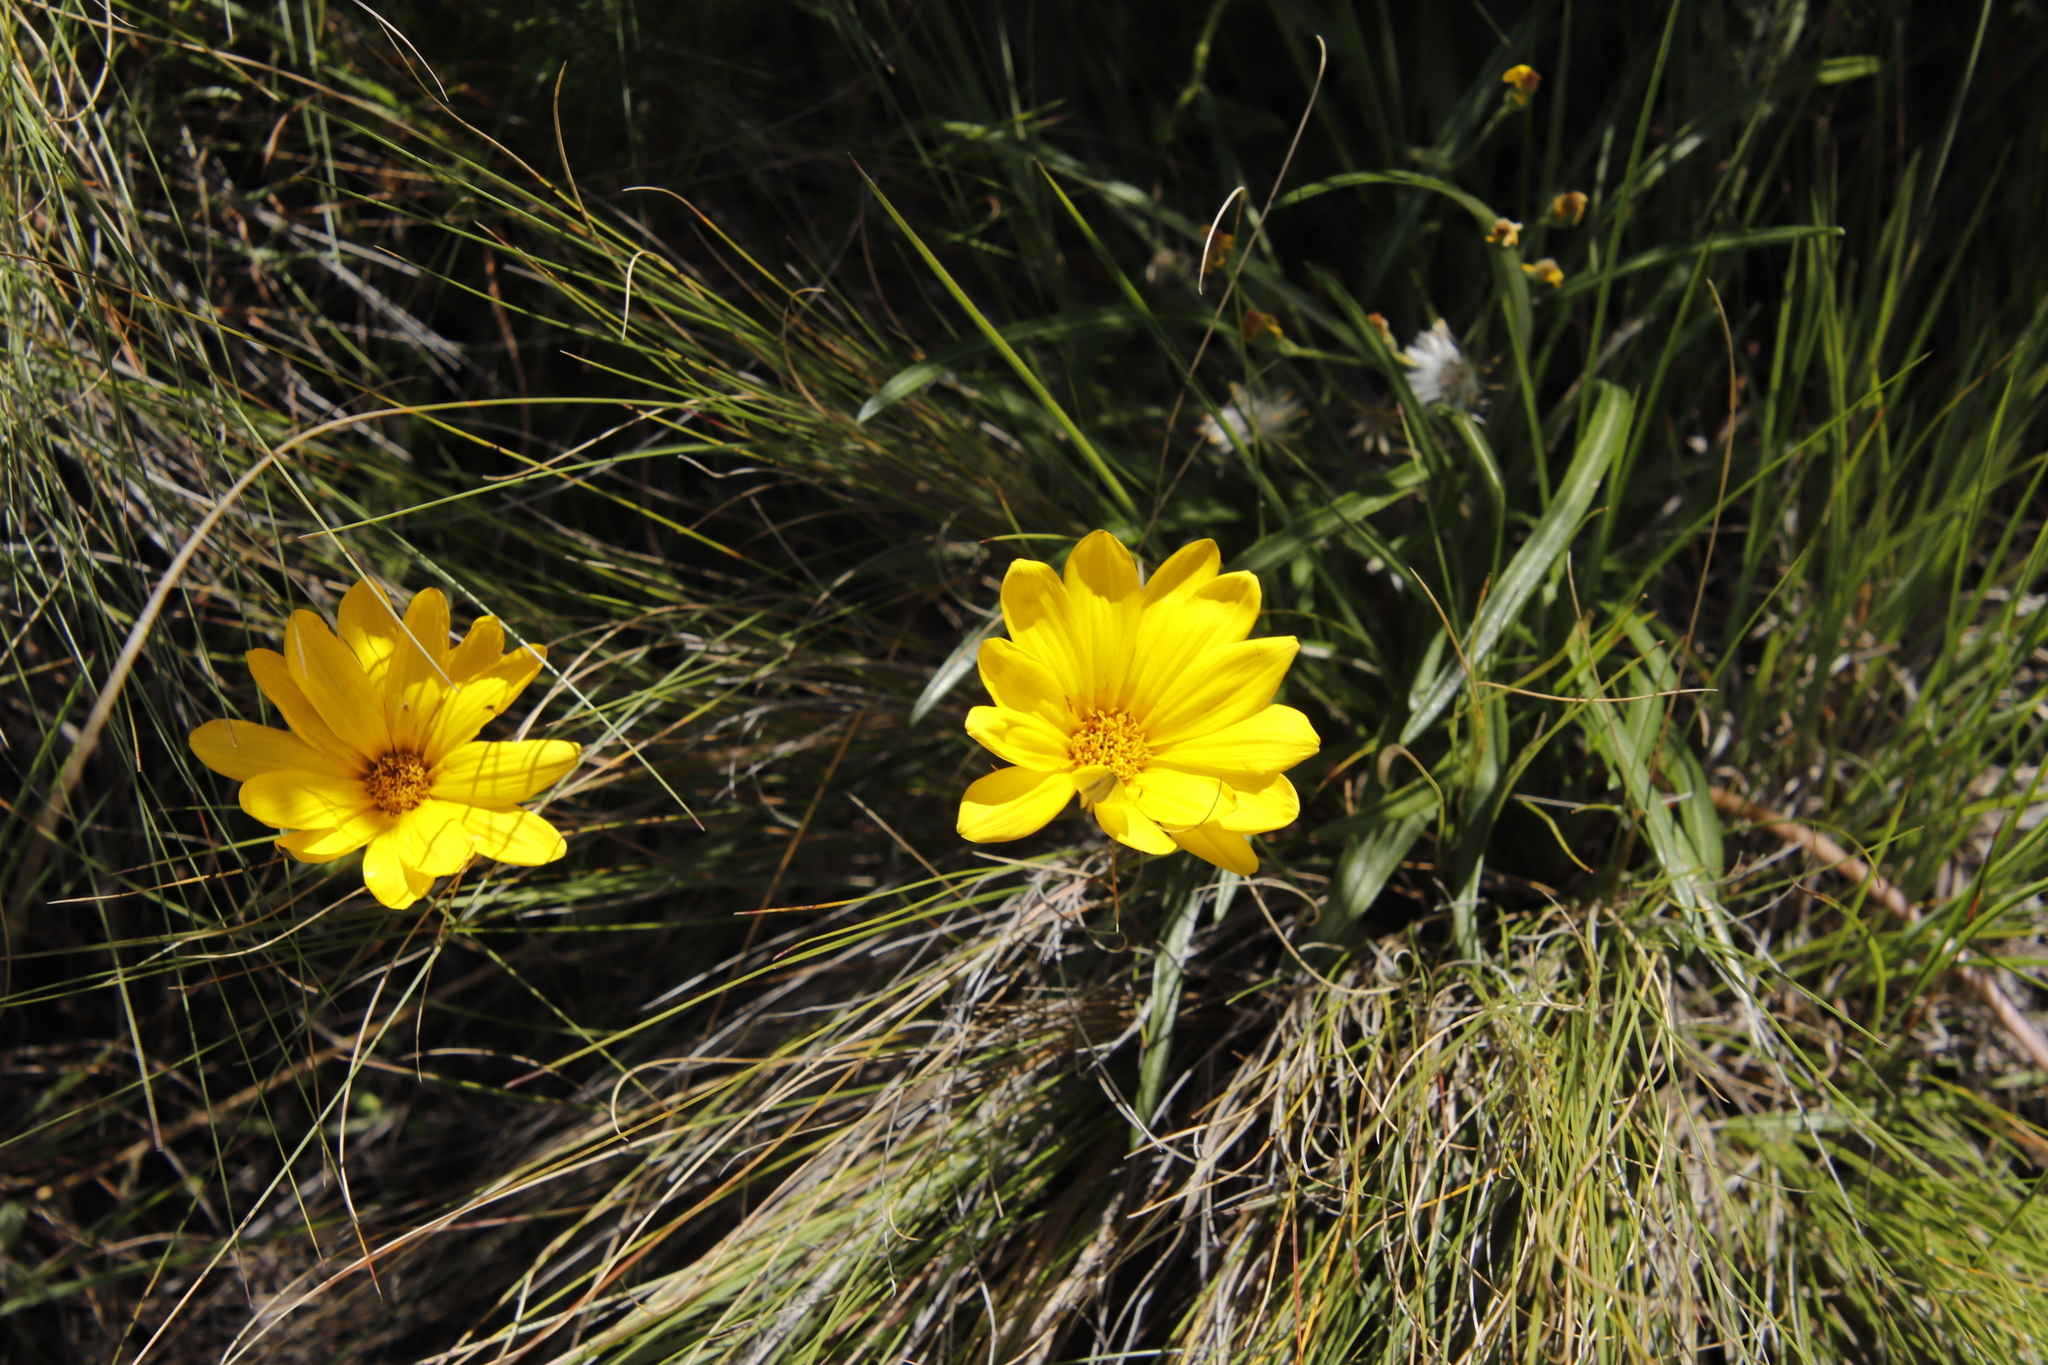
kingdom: Plantae
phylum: Tracheophyta
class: Magnoliopsida
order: Asterales
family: Asteraceae
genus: Gazania
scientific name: Gazania krebsiana
